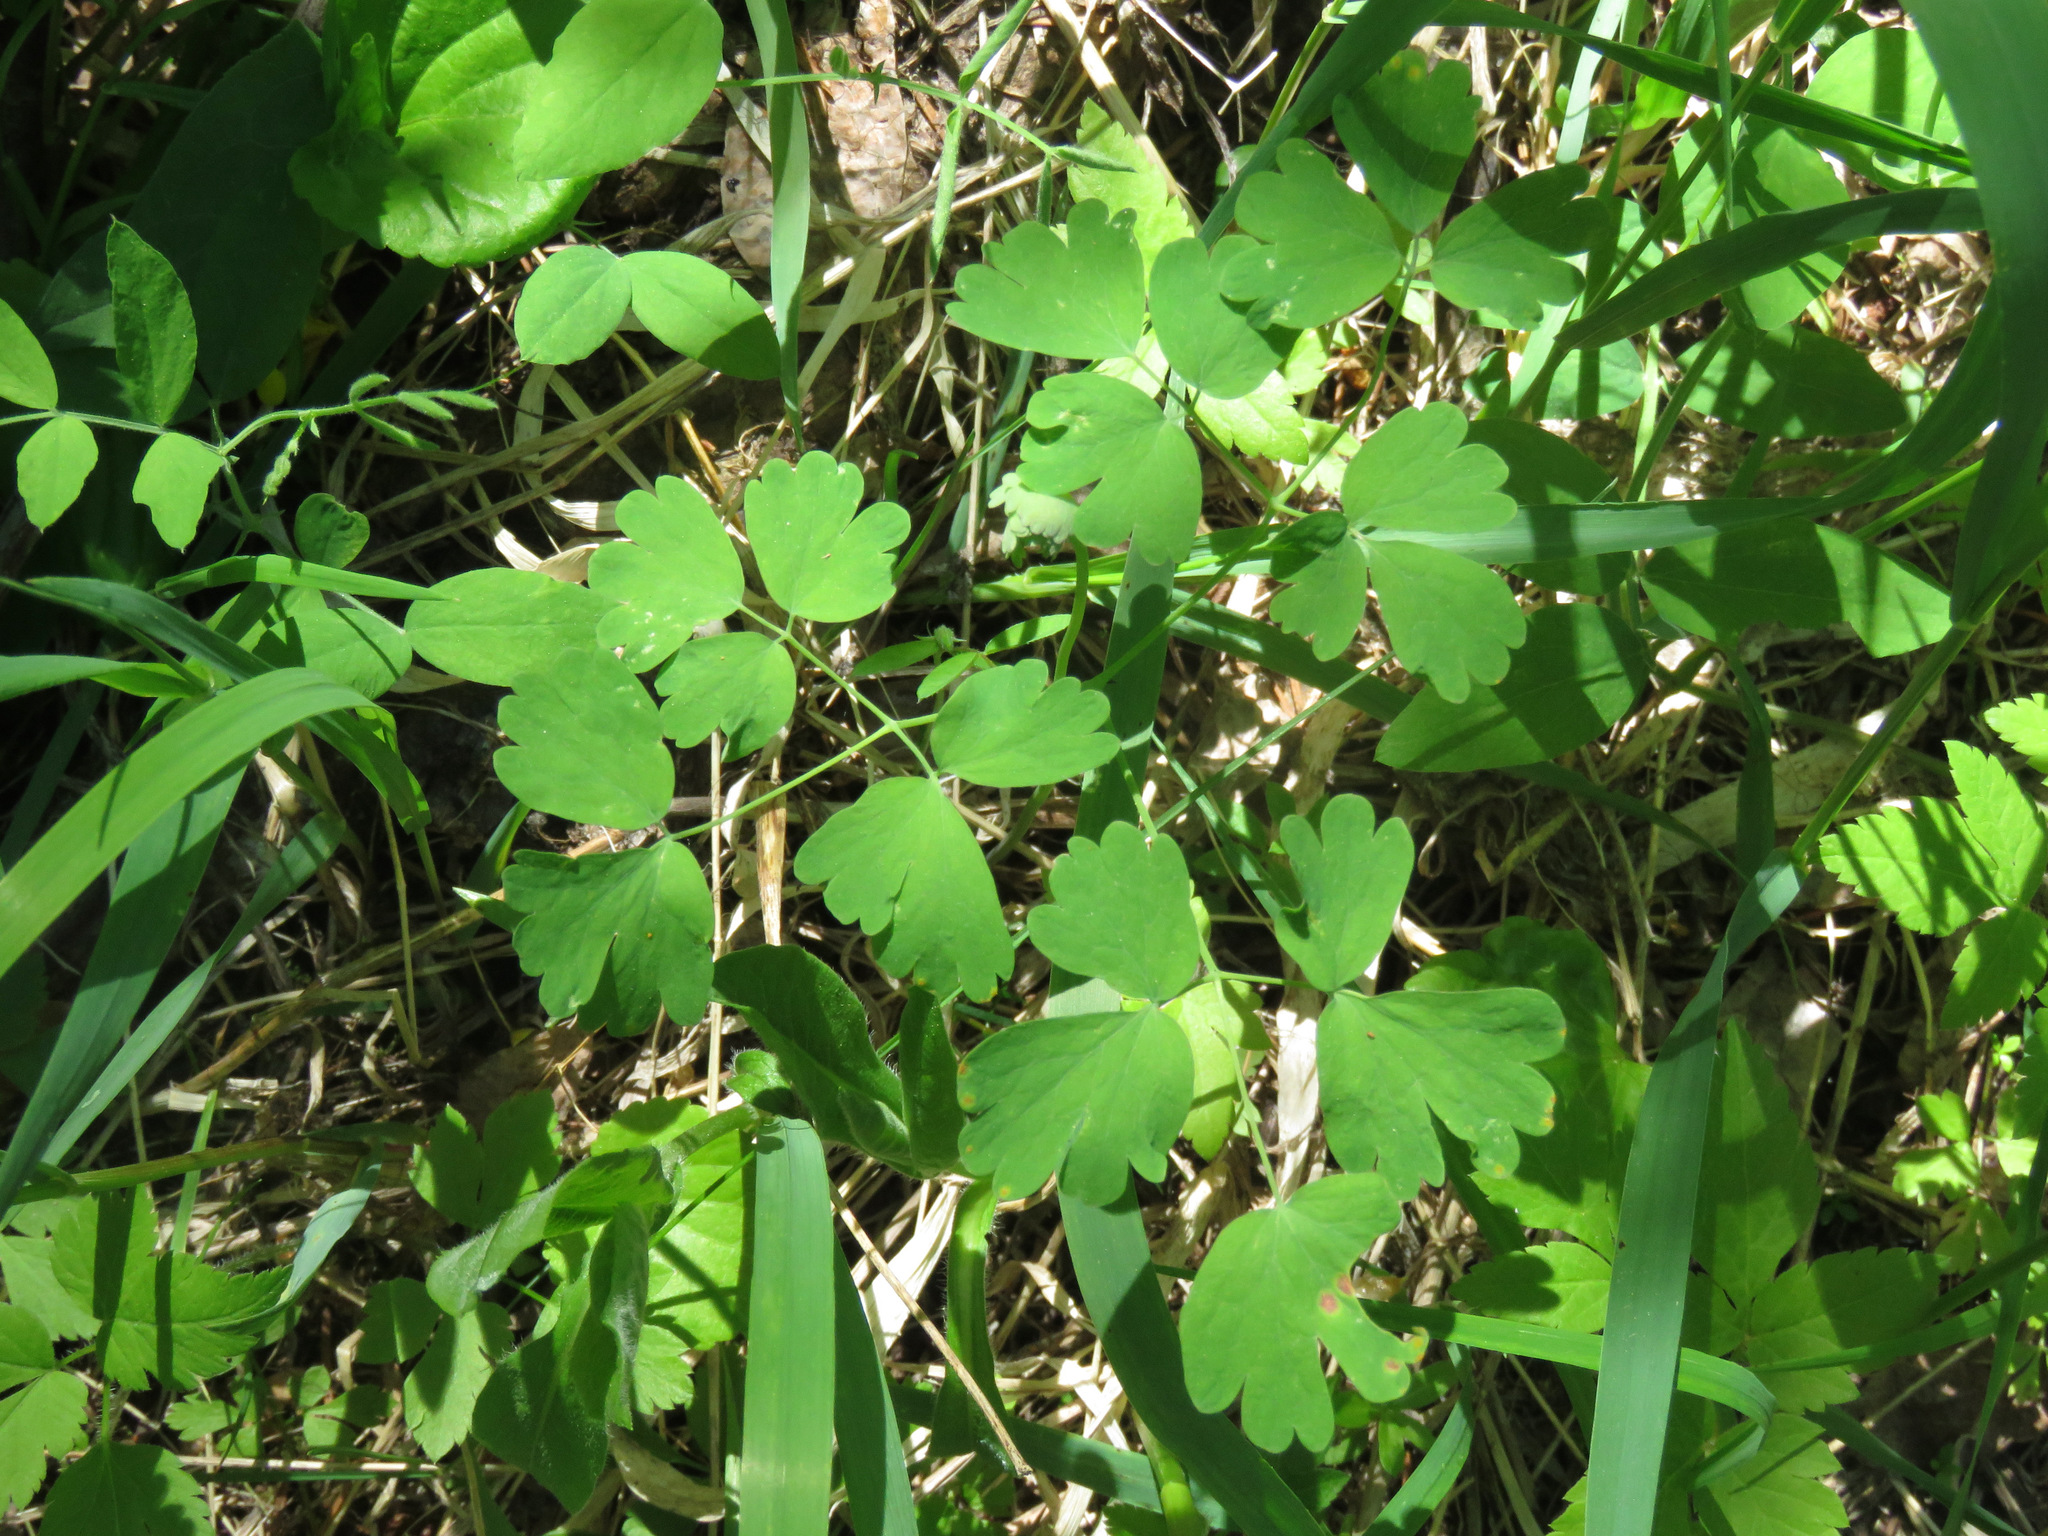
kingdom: Plantae
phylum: Tracheophyta
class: Magnoliopsida
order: Ranunculales
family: Ranunculaceae
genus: Thalictrum
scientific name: Thalictrum occidentale
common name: Western meadow-rue
